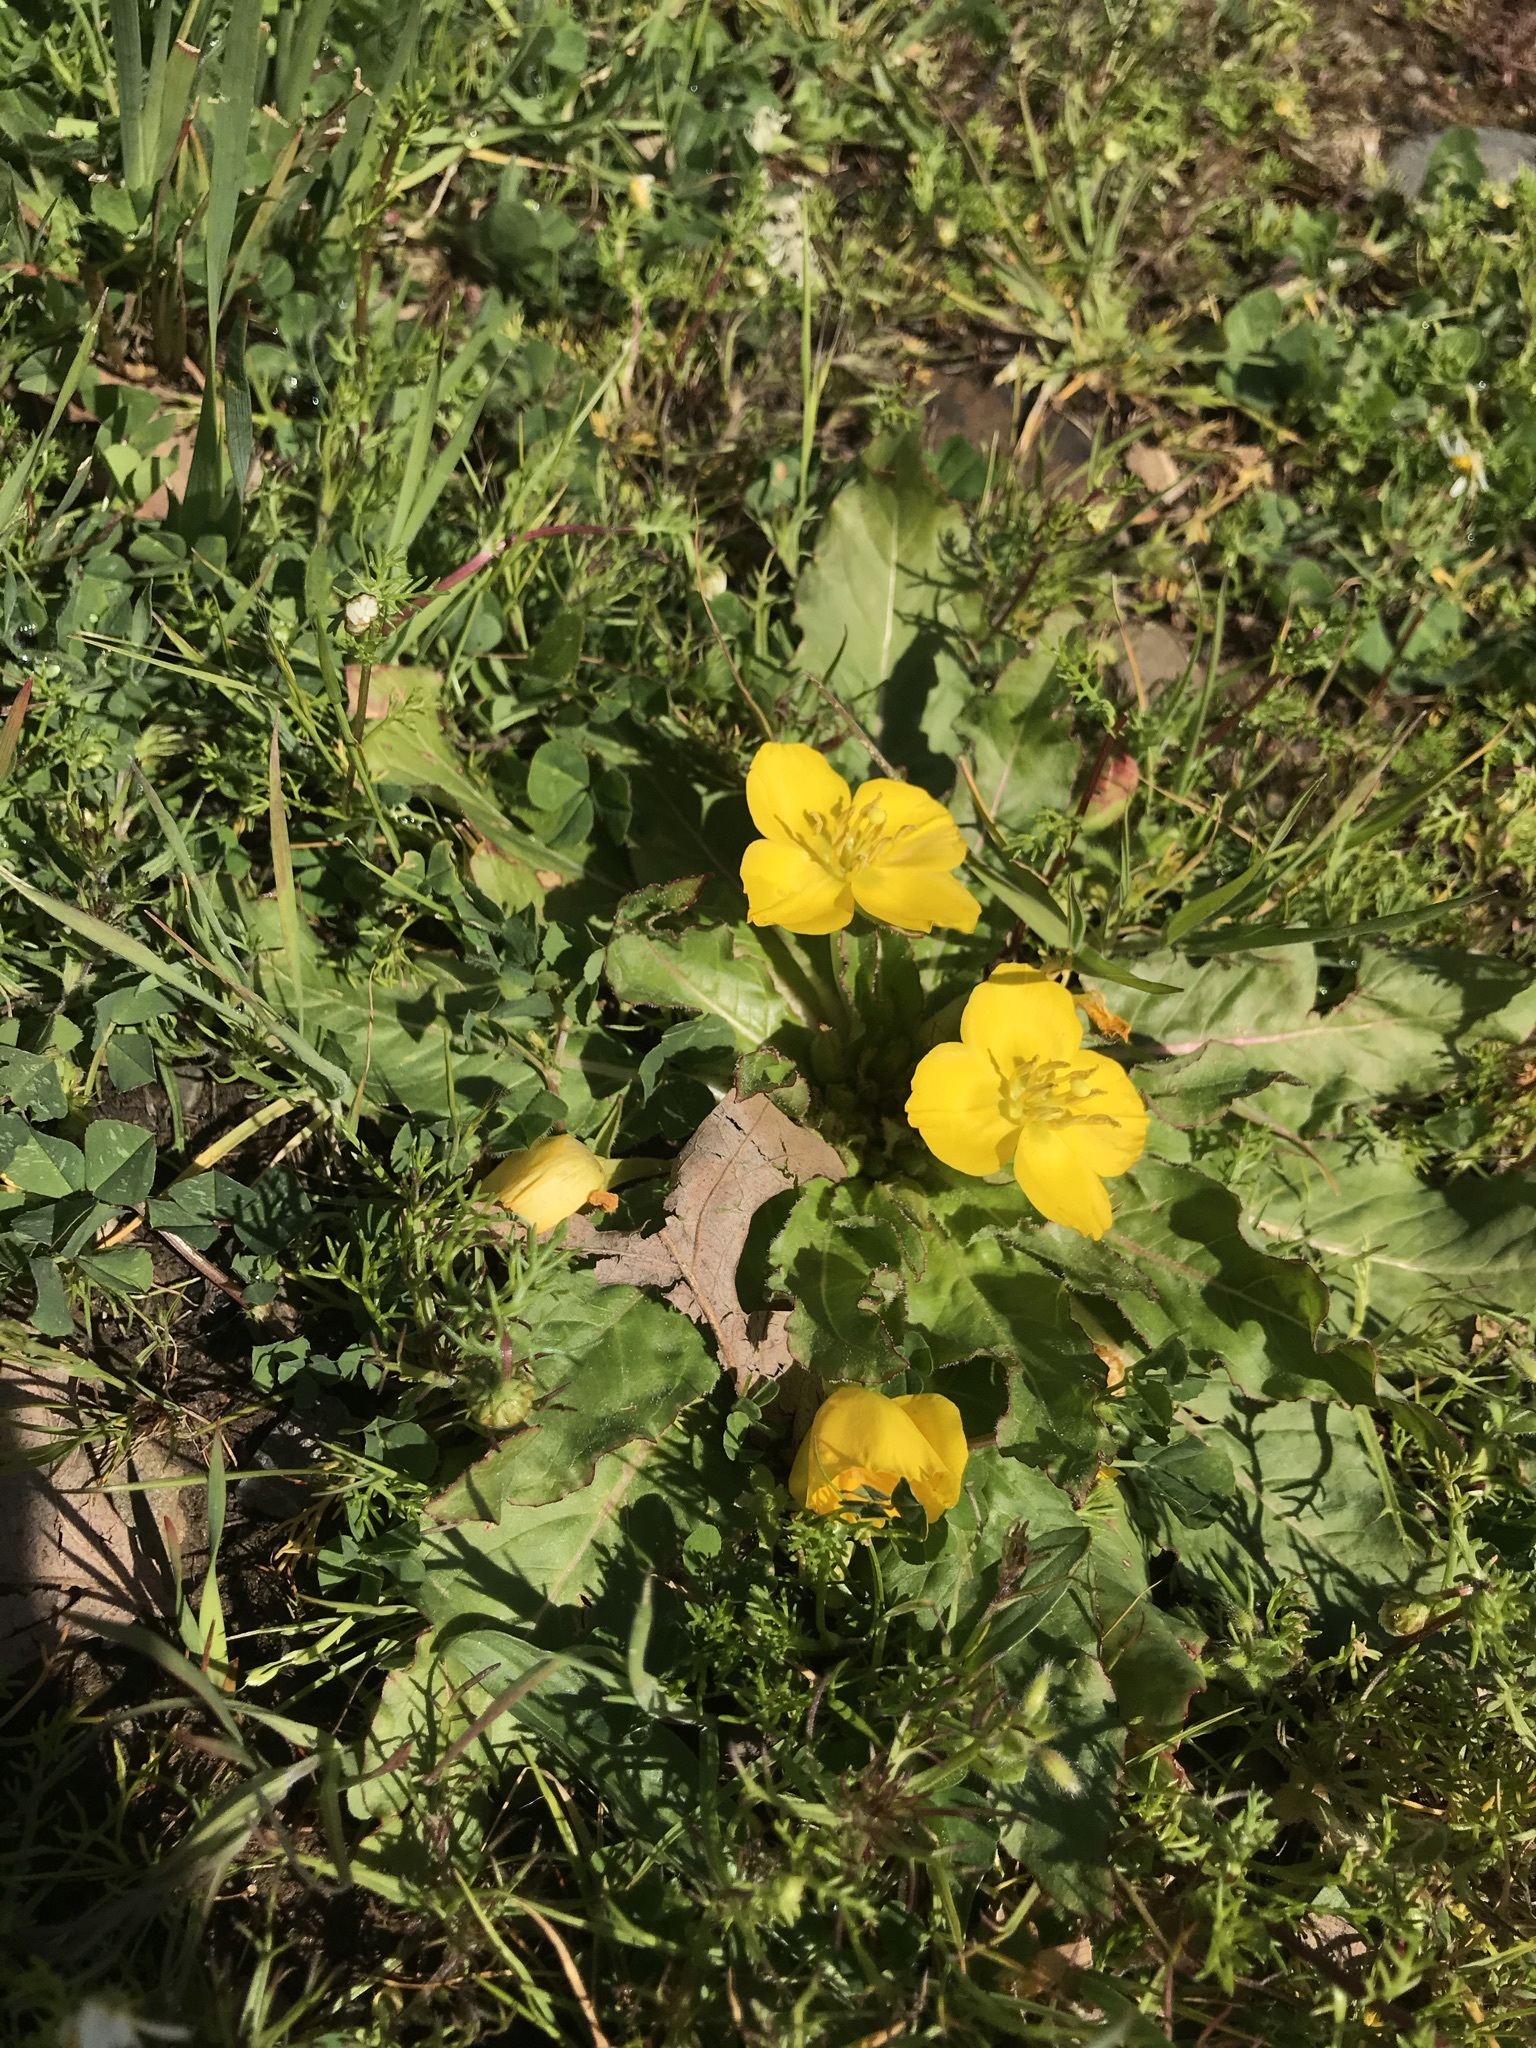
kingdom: Plantae
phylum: Tracheophyta
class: Magnoliopsida
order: Myrtales
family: Onagraceae
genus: Taraxia
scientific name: Taraxia ovata
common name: Goldeneggs
